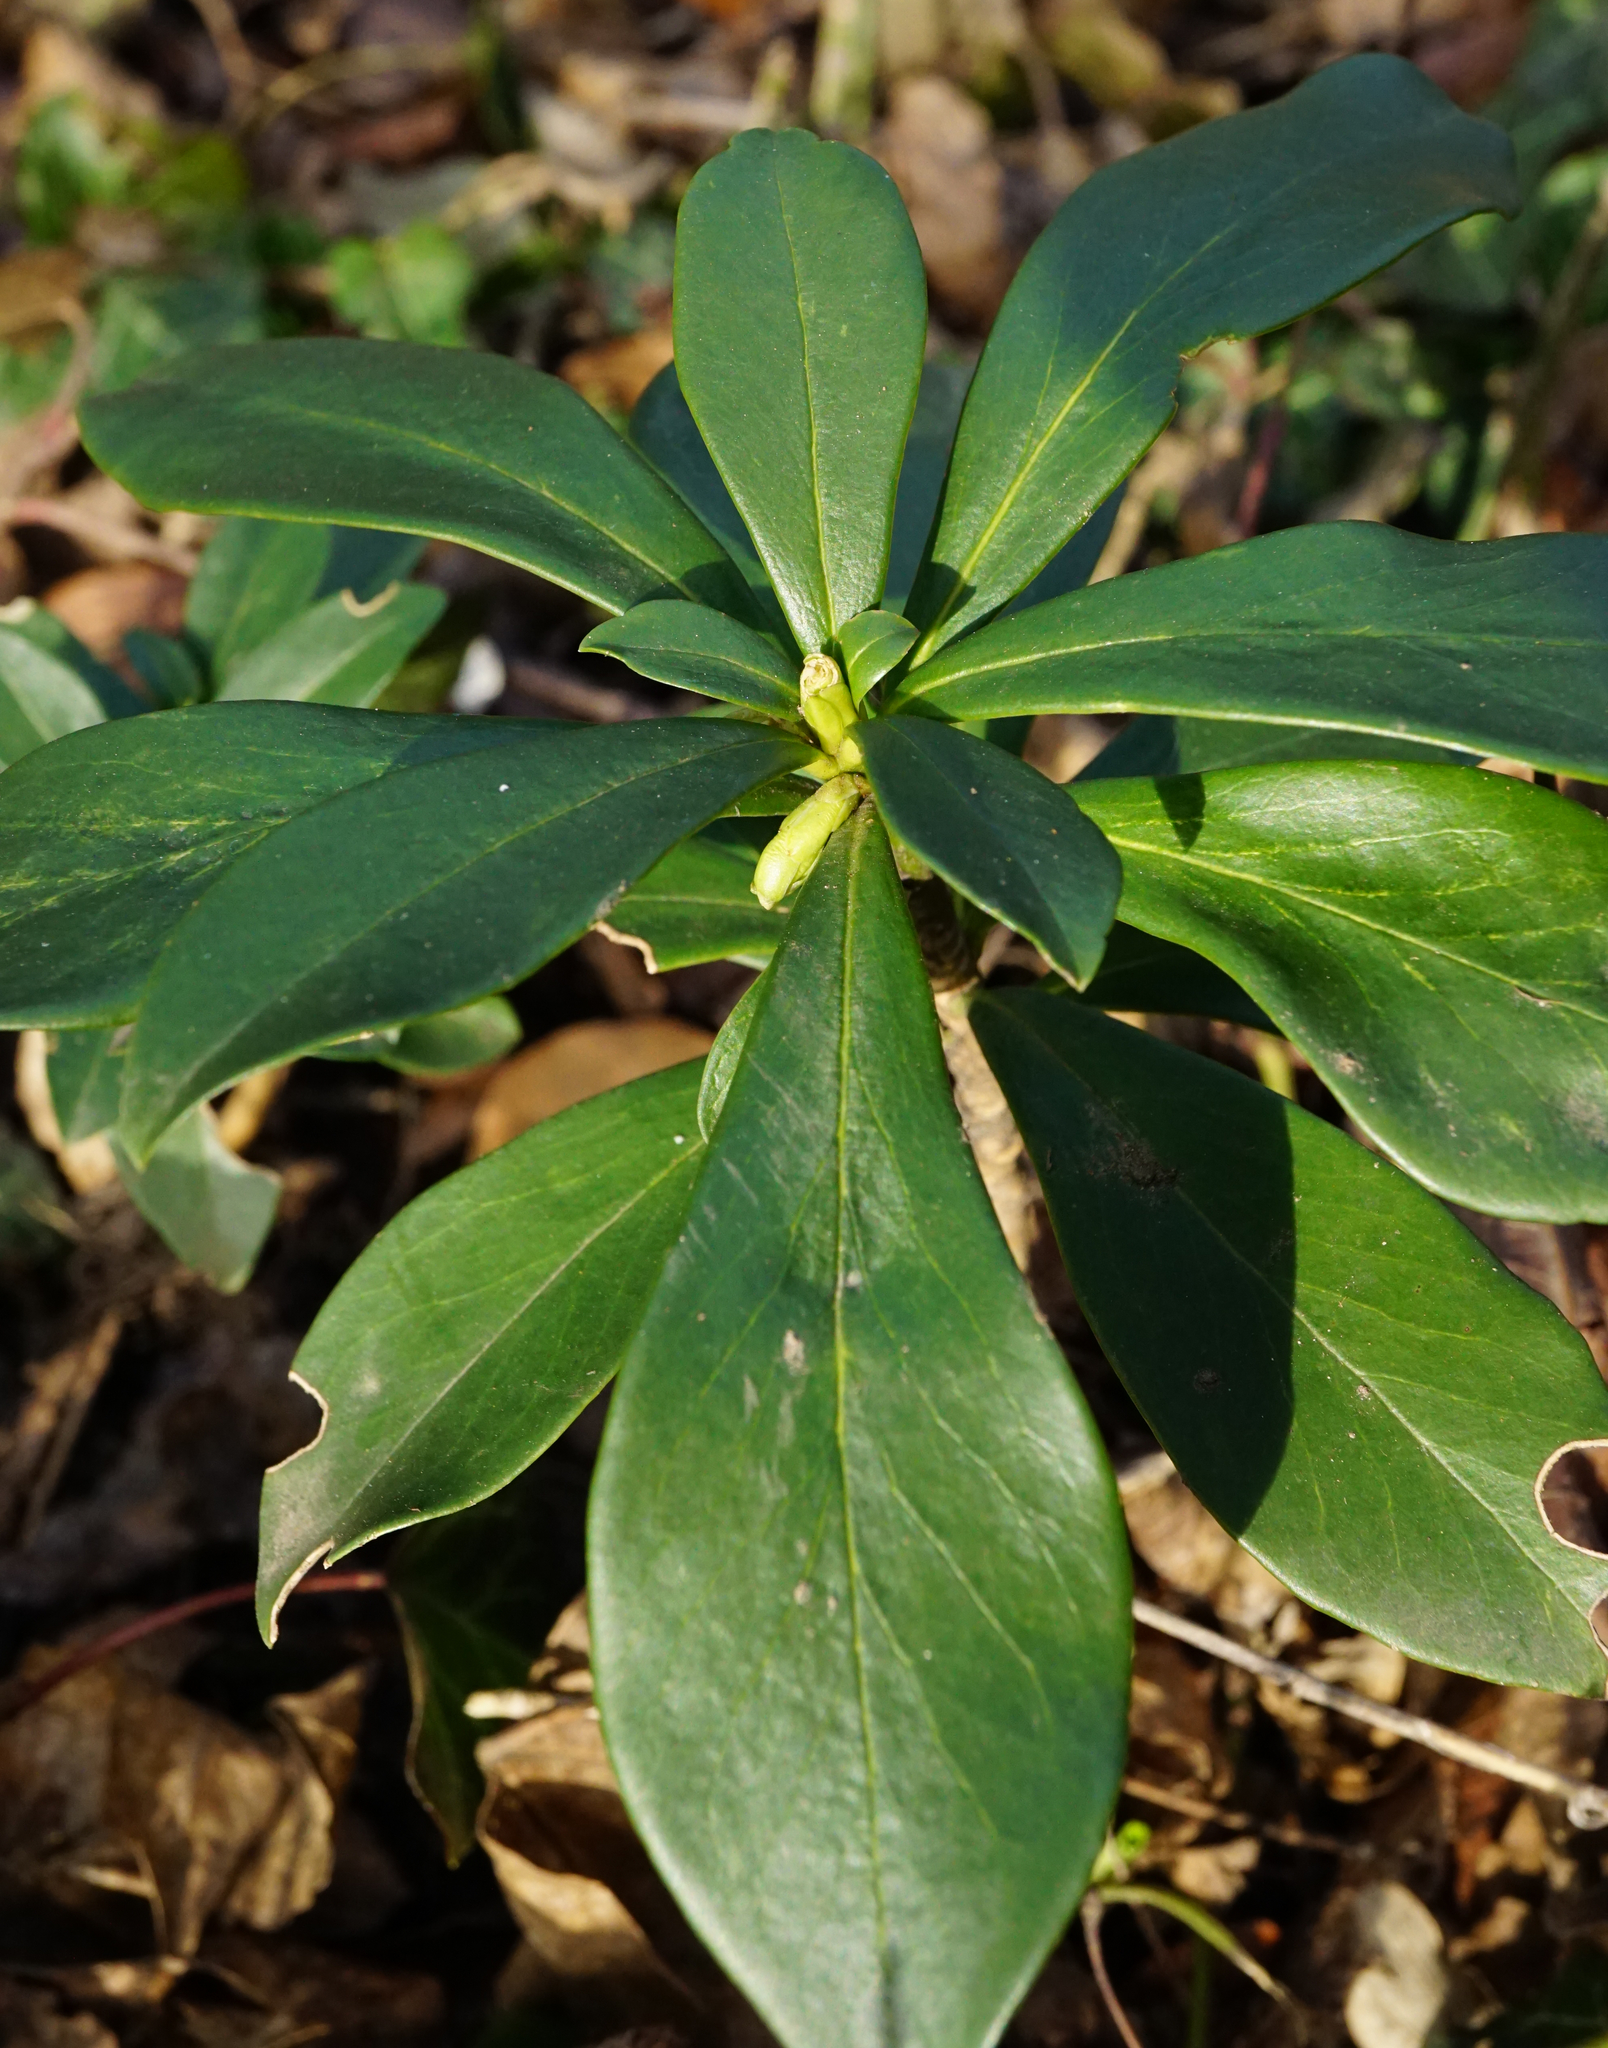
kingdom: Plantae
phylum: Tracheophyta
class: Magnoliopsida
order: Malvales
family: Thymelaeaceae
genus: Daphne
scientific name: Daphne laureola
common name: Spurge-laurel
